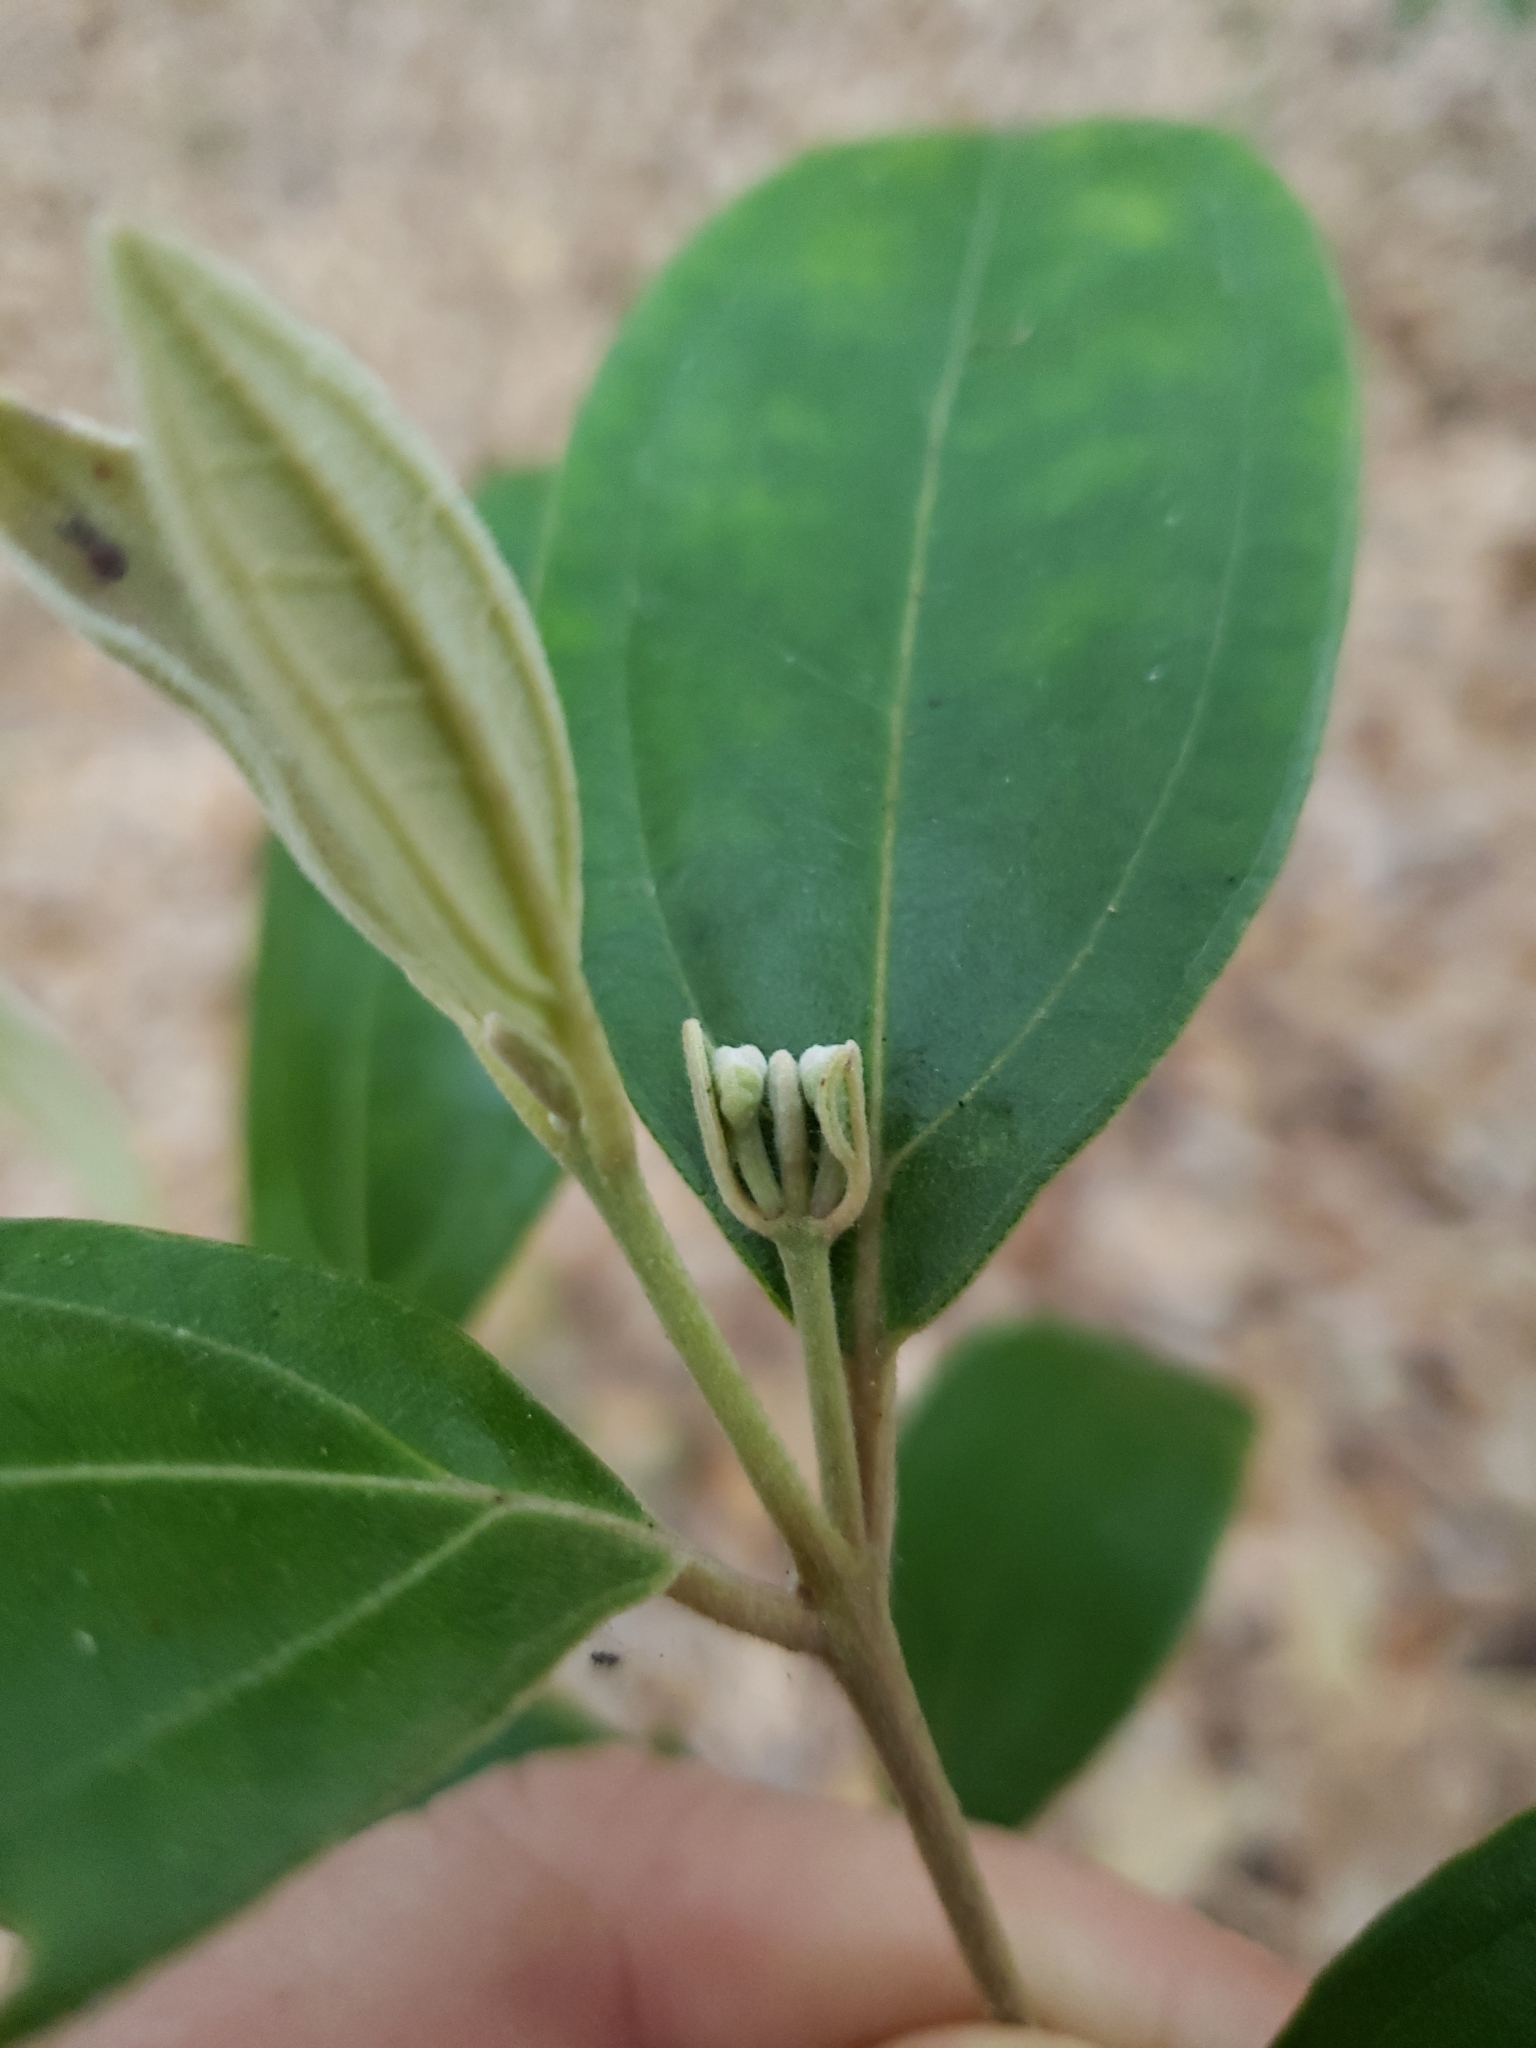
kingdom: Plantae
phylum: Tracheophyta
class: Magnoliopsida
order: Myrtales
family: Myrtaceae
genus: Rhodomyrtus
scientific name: Rhodomyrtus tomentosa
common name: Rose myrtle
